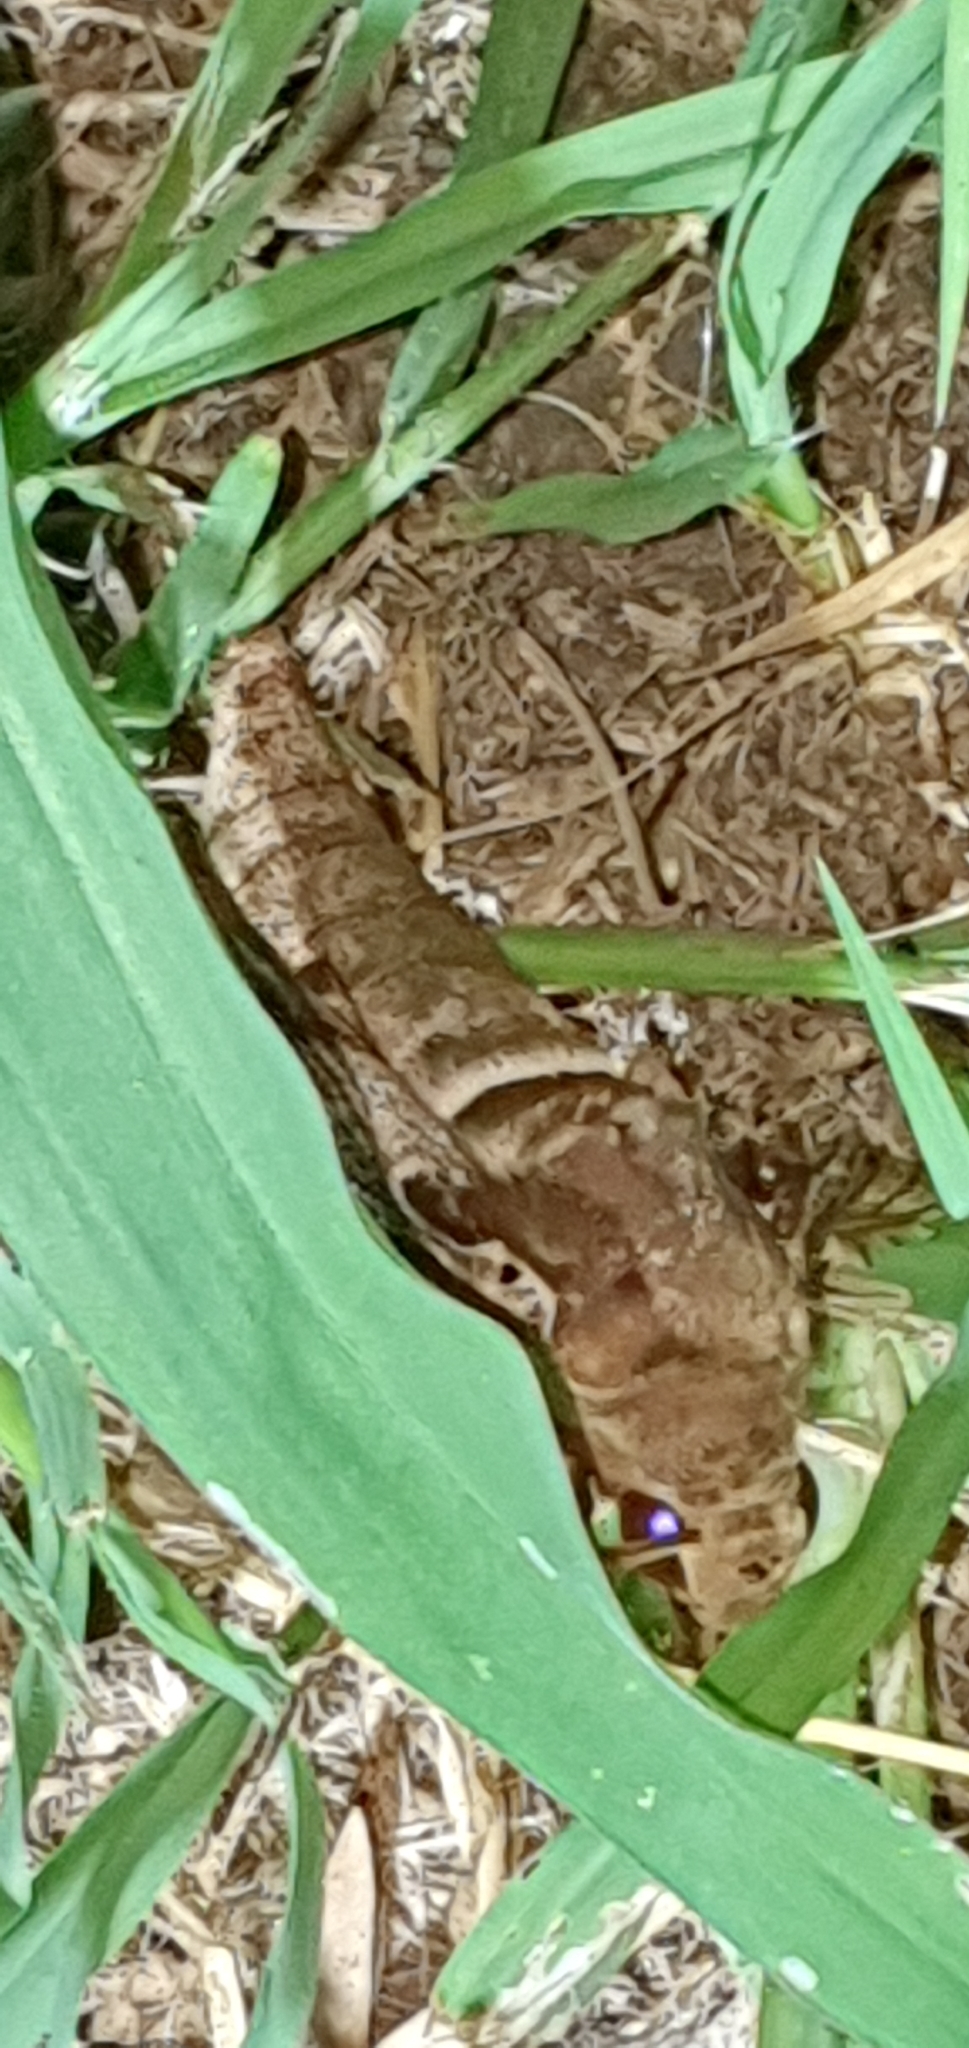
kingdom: Animalia
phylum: Arthropoda
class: Insecta
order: Lepidoptera
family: Sphingidae
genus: Daphnis
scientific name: Daphnis placida
